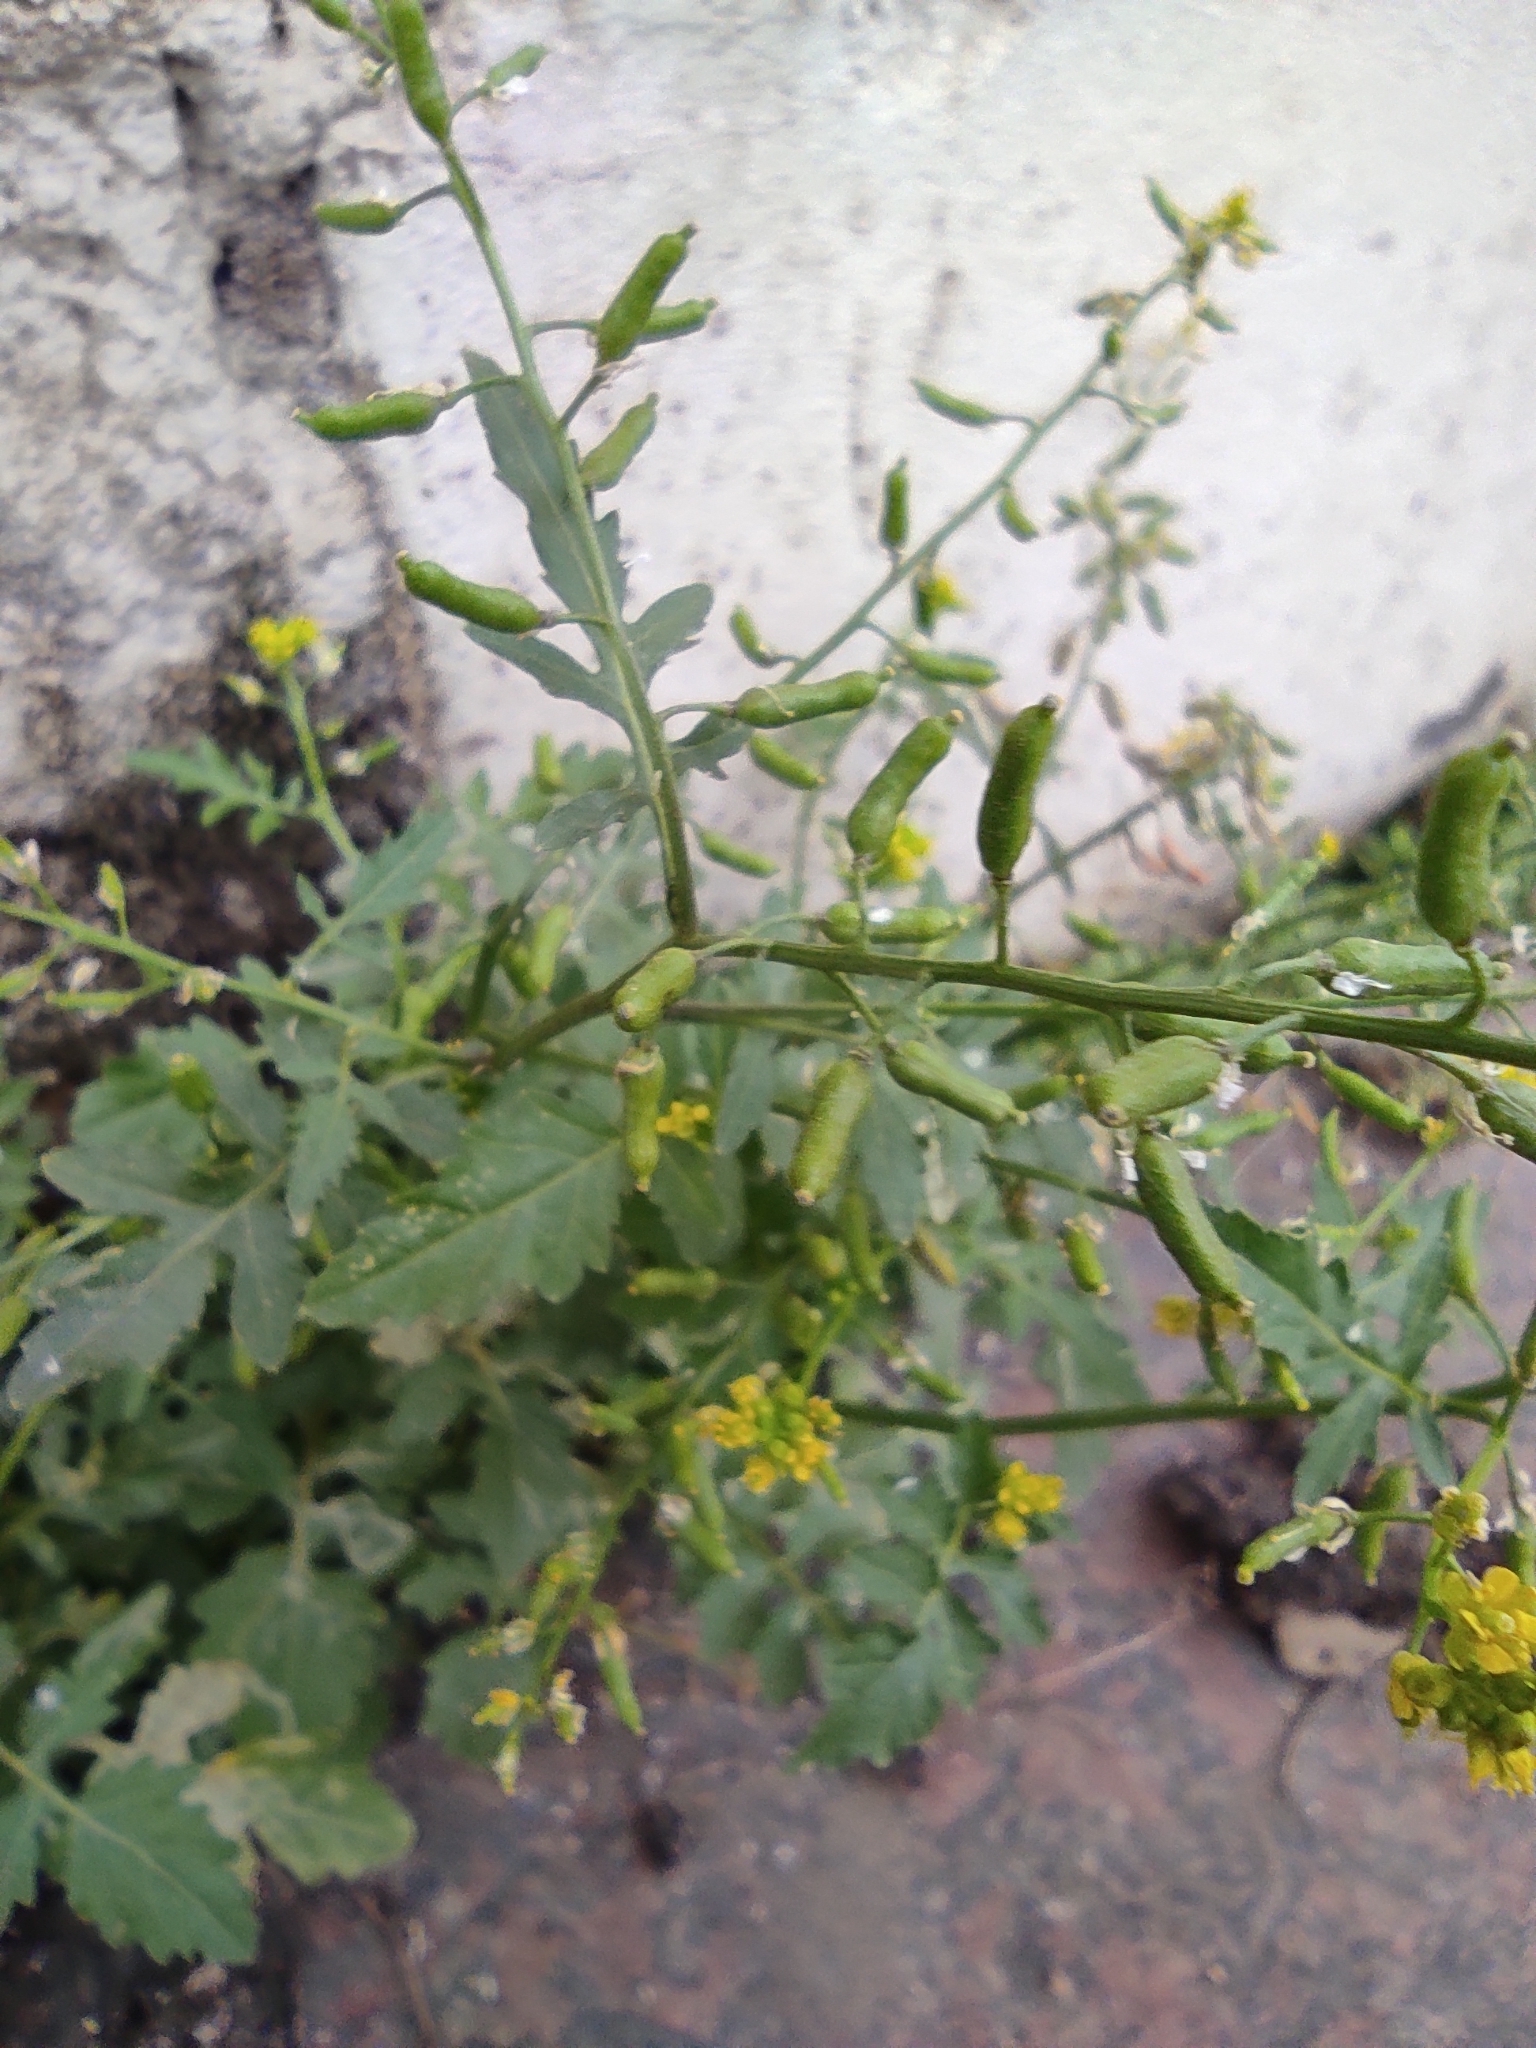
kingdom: Plantae
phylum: Tracheophyta
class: Magnoliopsida
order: Brassicales
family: Brassicaceae
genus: Rorippa
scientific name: Rorippa palustris
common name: Marsh yellow-cress
